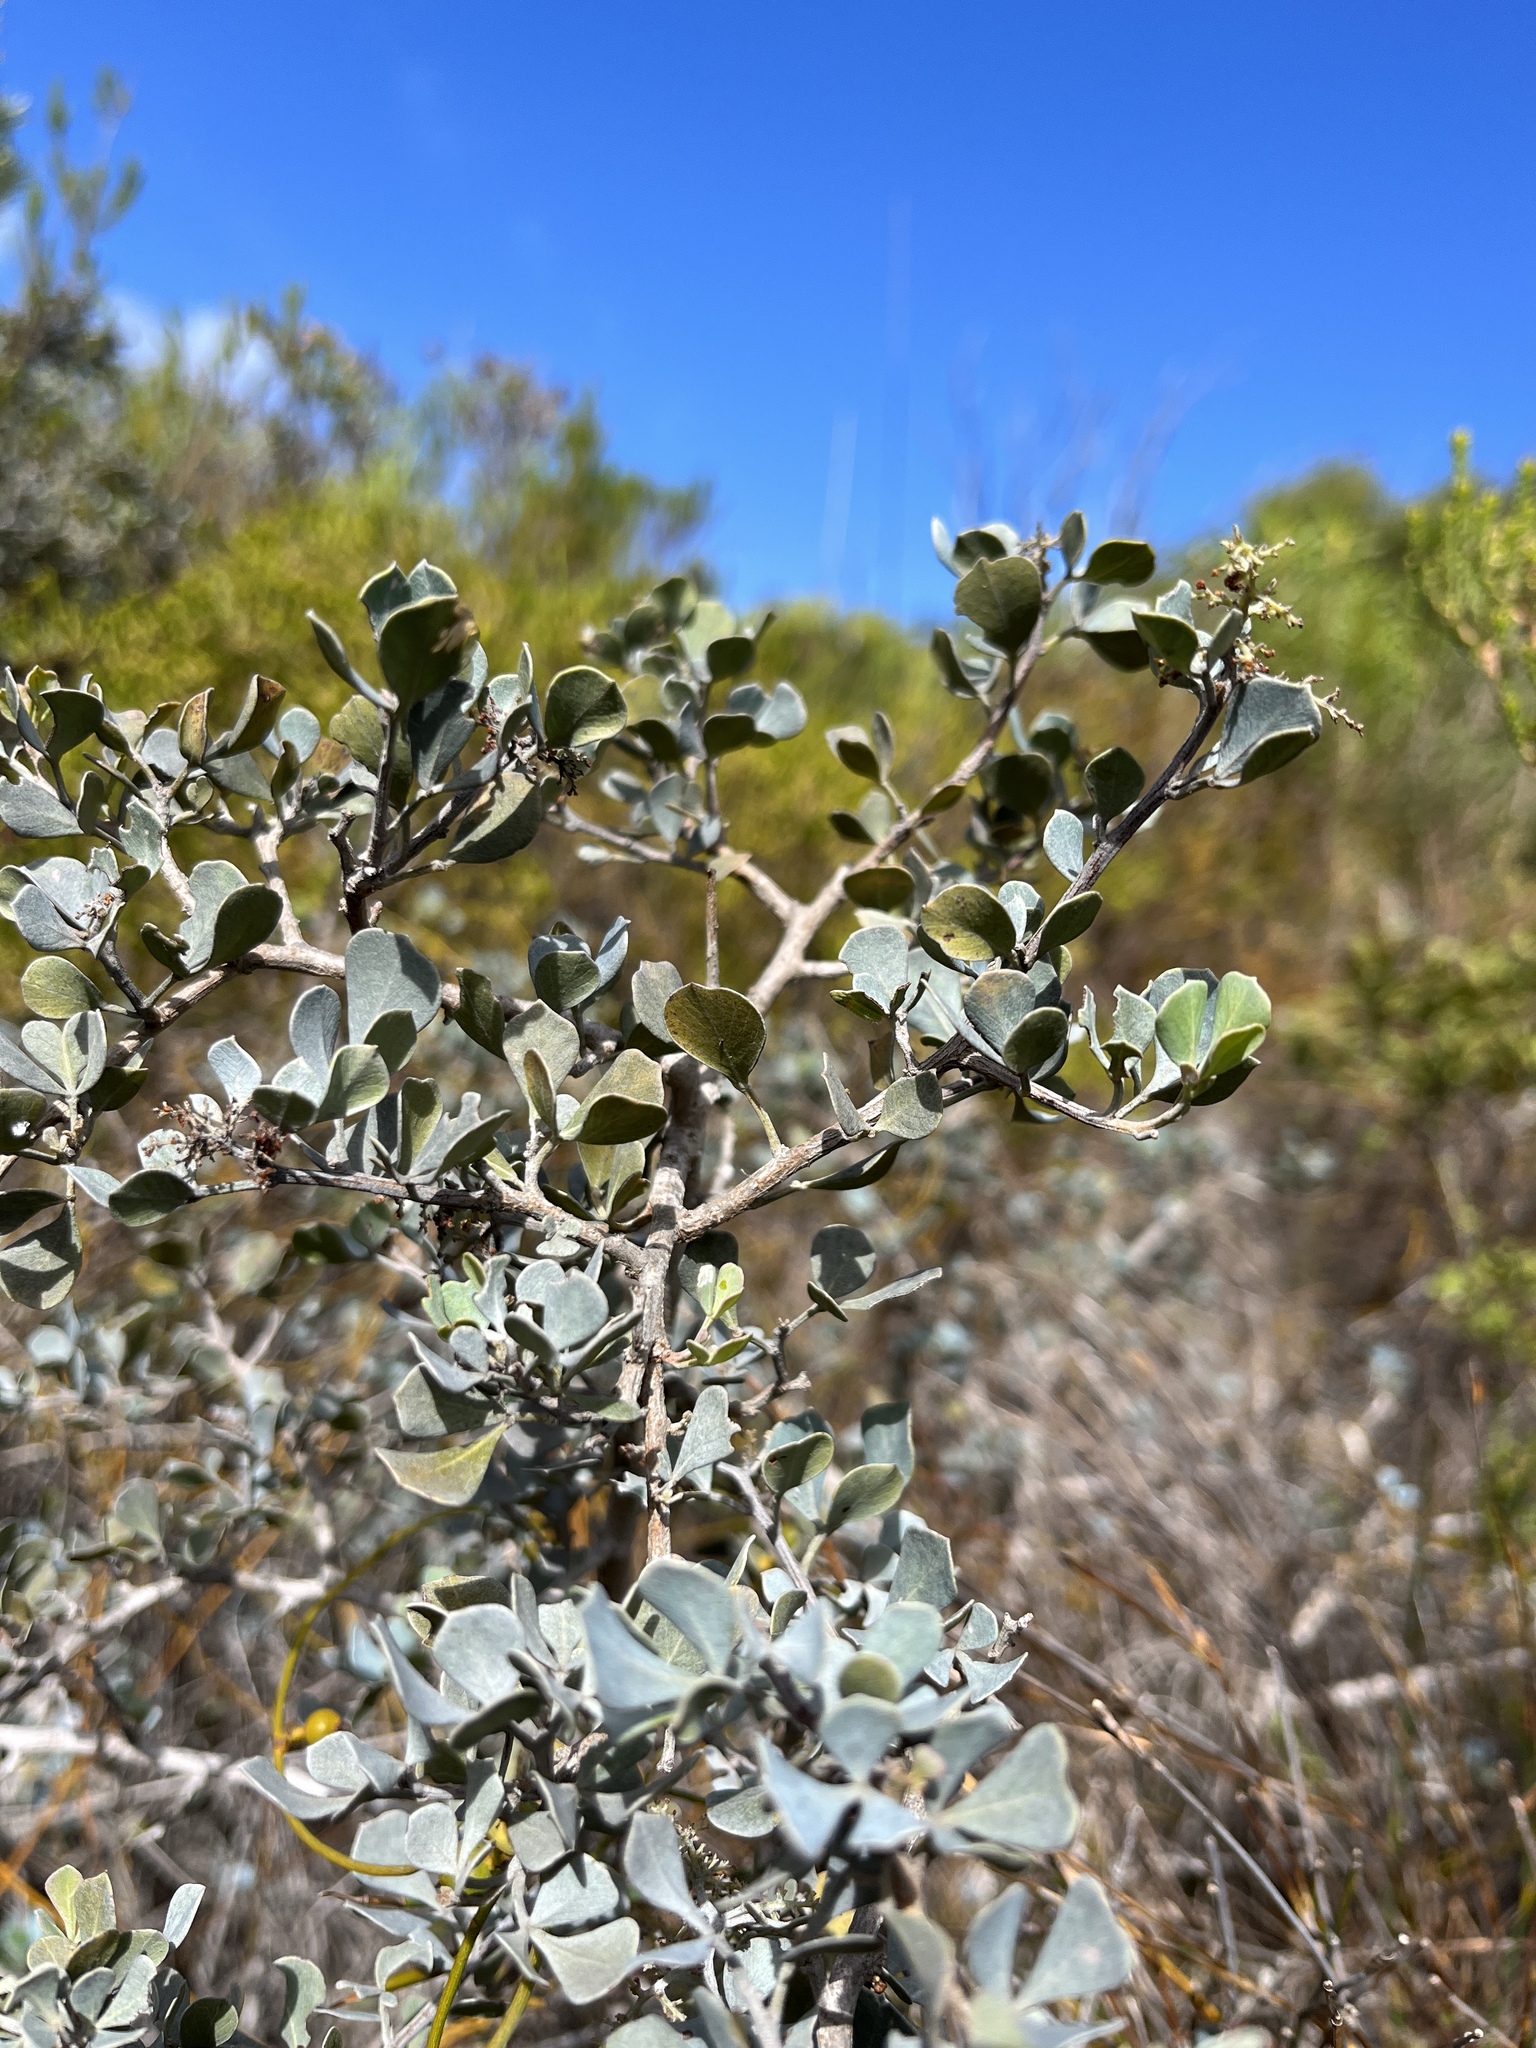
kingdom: Plantae
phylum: Tracheophyta
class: Magnoliopsida
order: Sapindales
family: Anacardiaceae
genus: Searsia
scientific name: Searsia glauca
